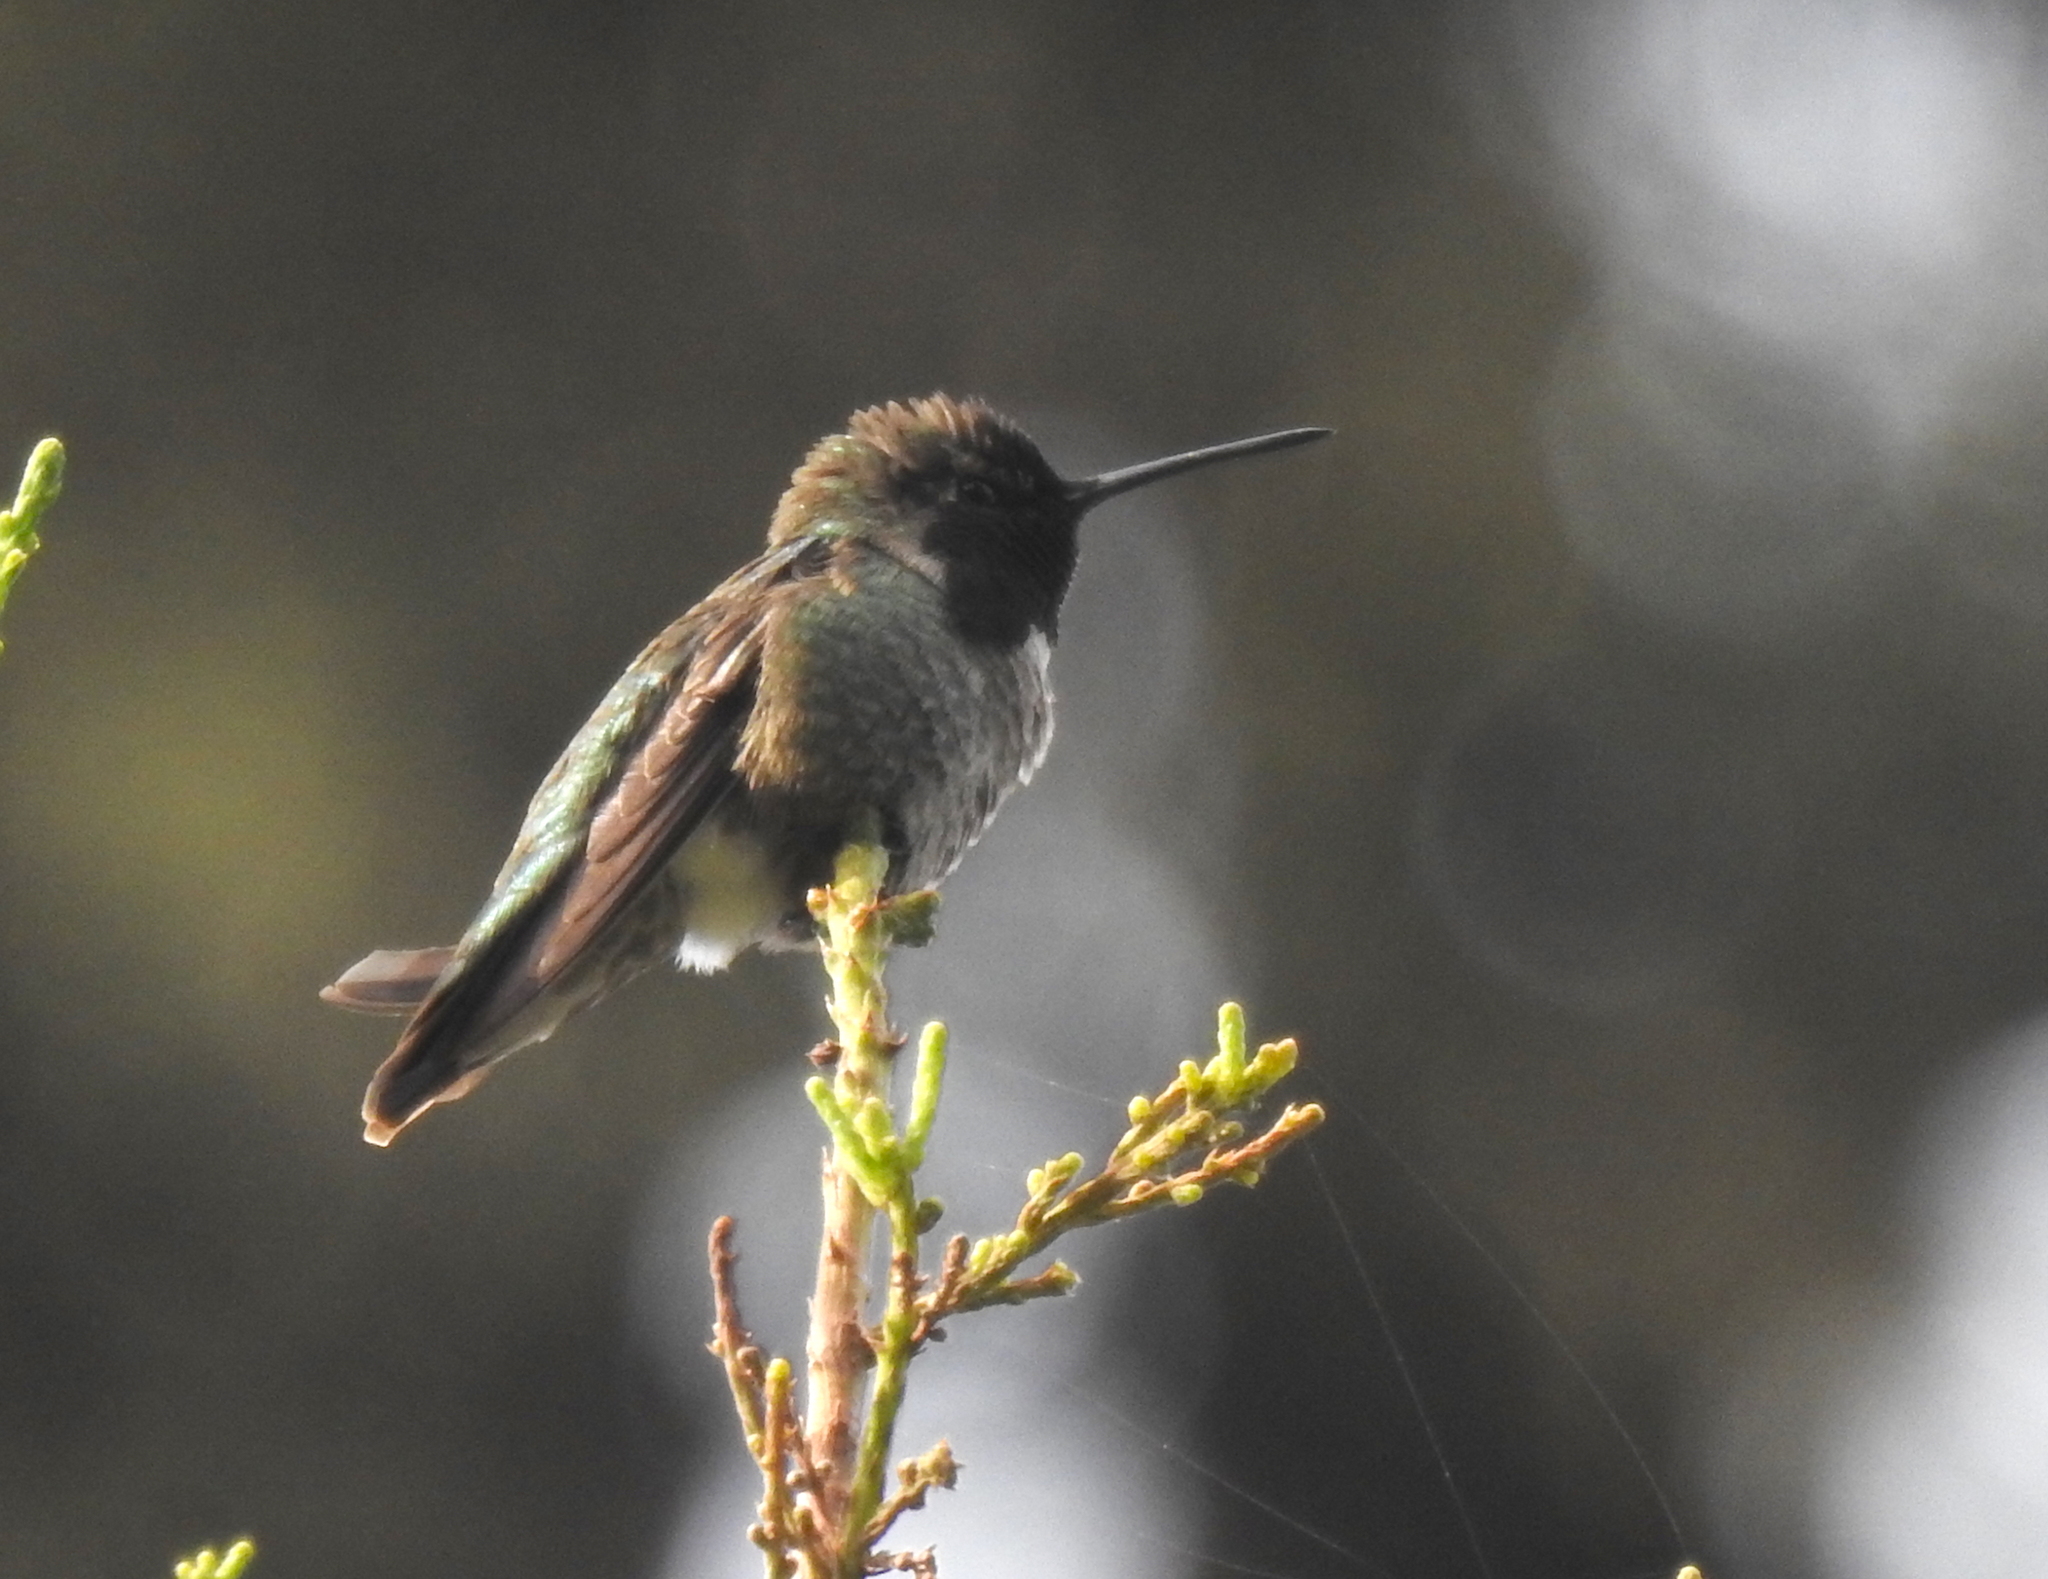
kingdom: Animalia
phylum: Chordata
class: Aves
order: Apodiformes
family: Trochilidae
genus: Calypte
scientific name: Calypte anna
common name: Anna's hummingbird
